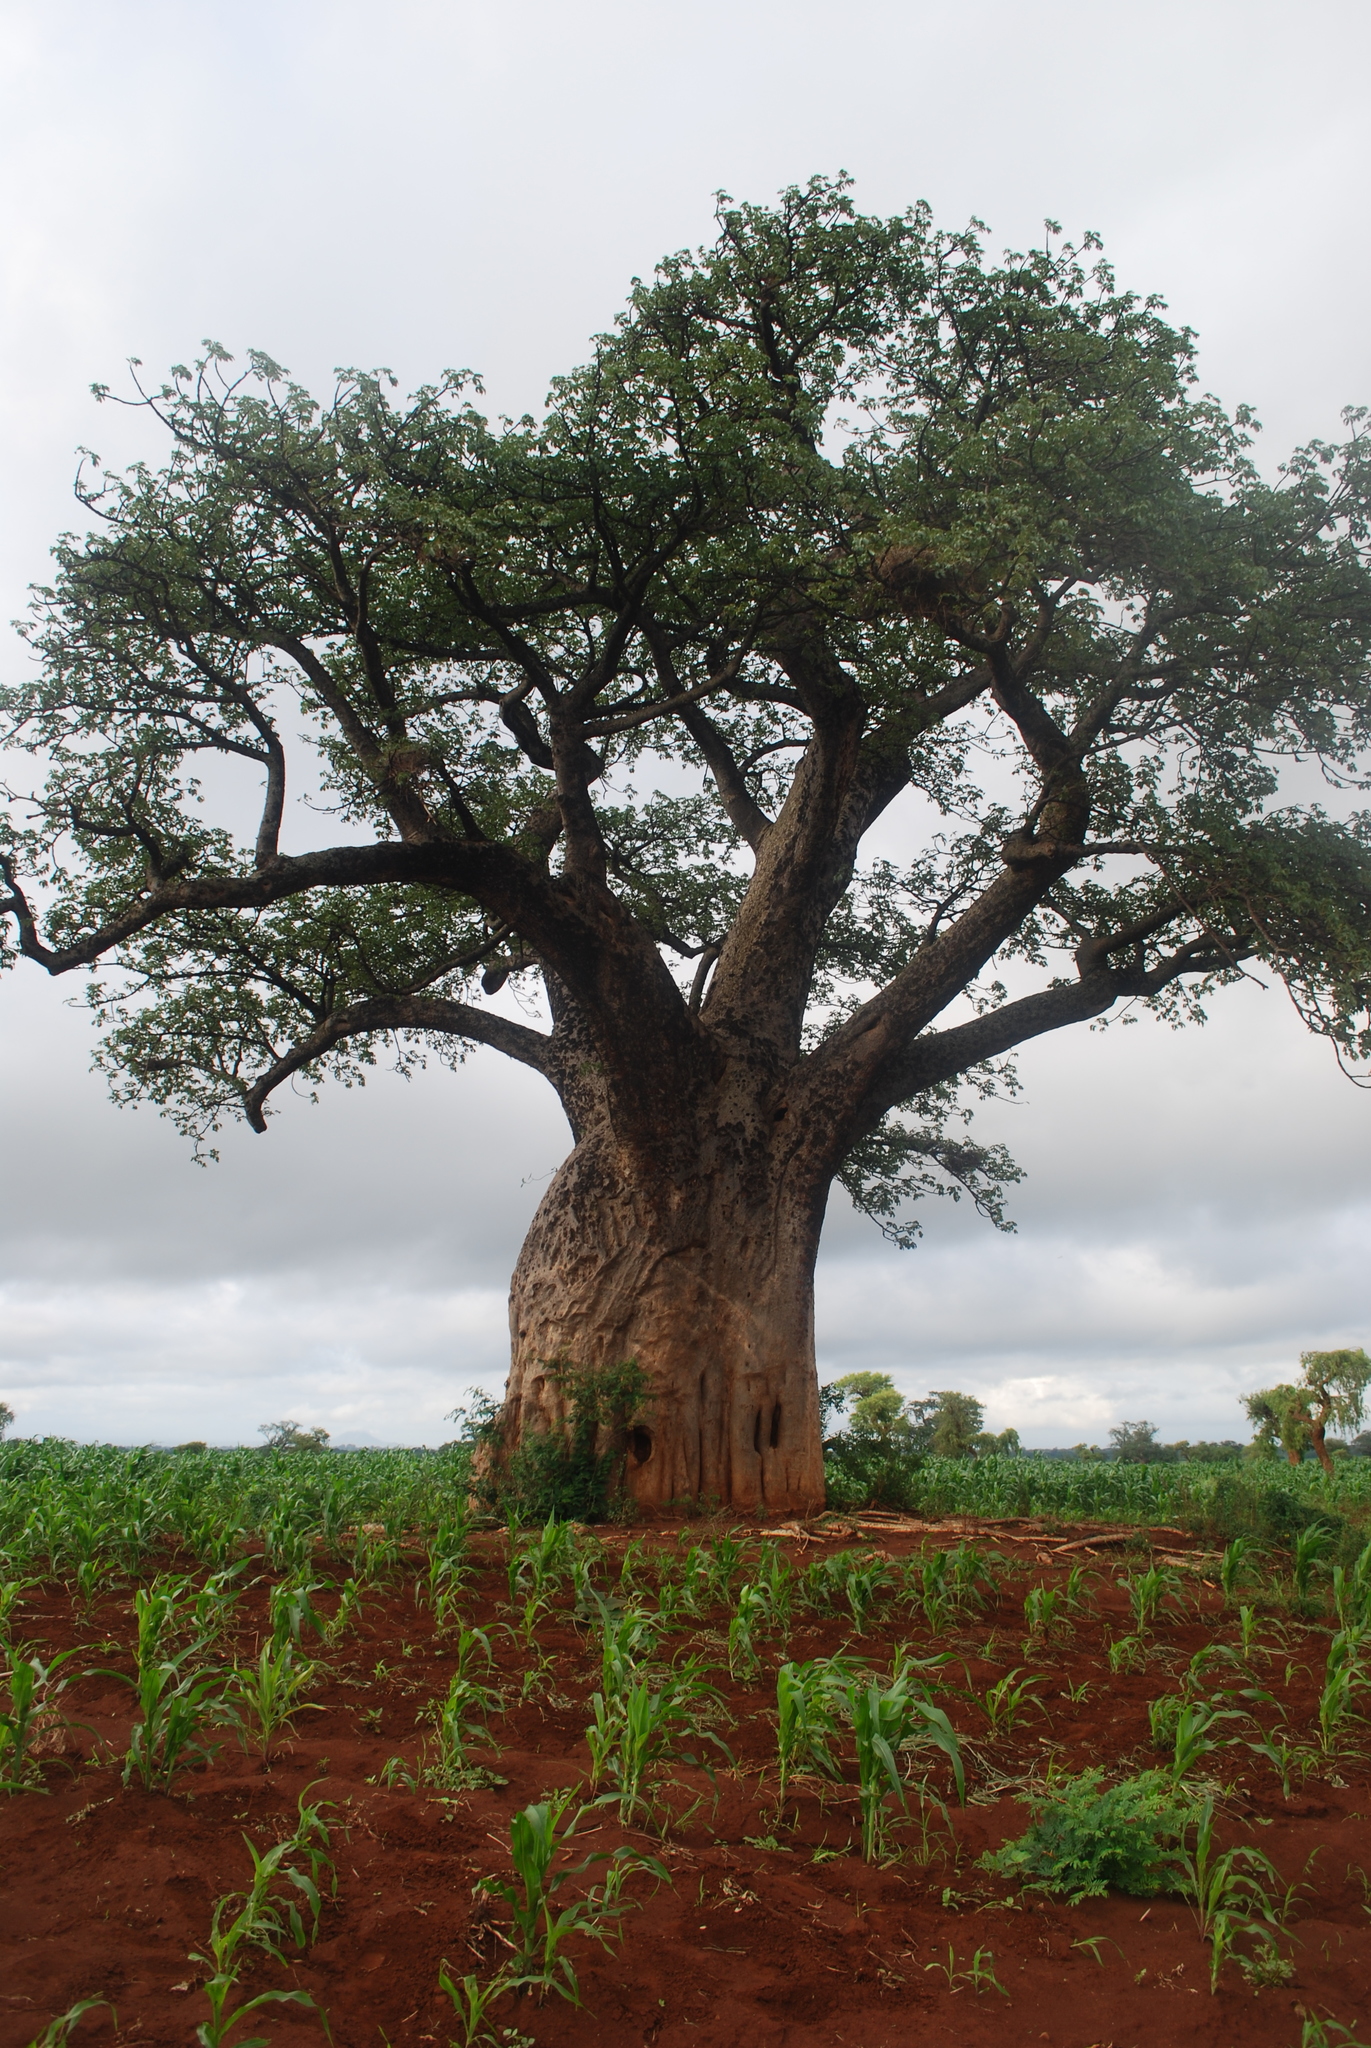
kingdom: Plantae
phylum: Tracheophyta
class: Magnoliopsida
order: Malvales
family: Malvaceae
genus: Adansonia
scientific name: Adansonia digitata
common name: Dead-rat-tree
